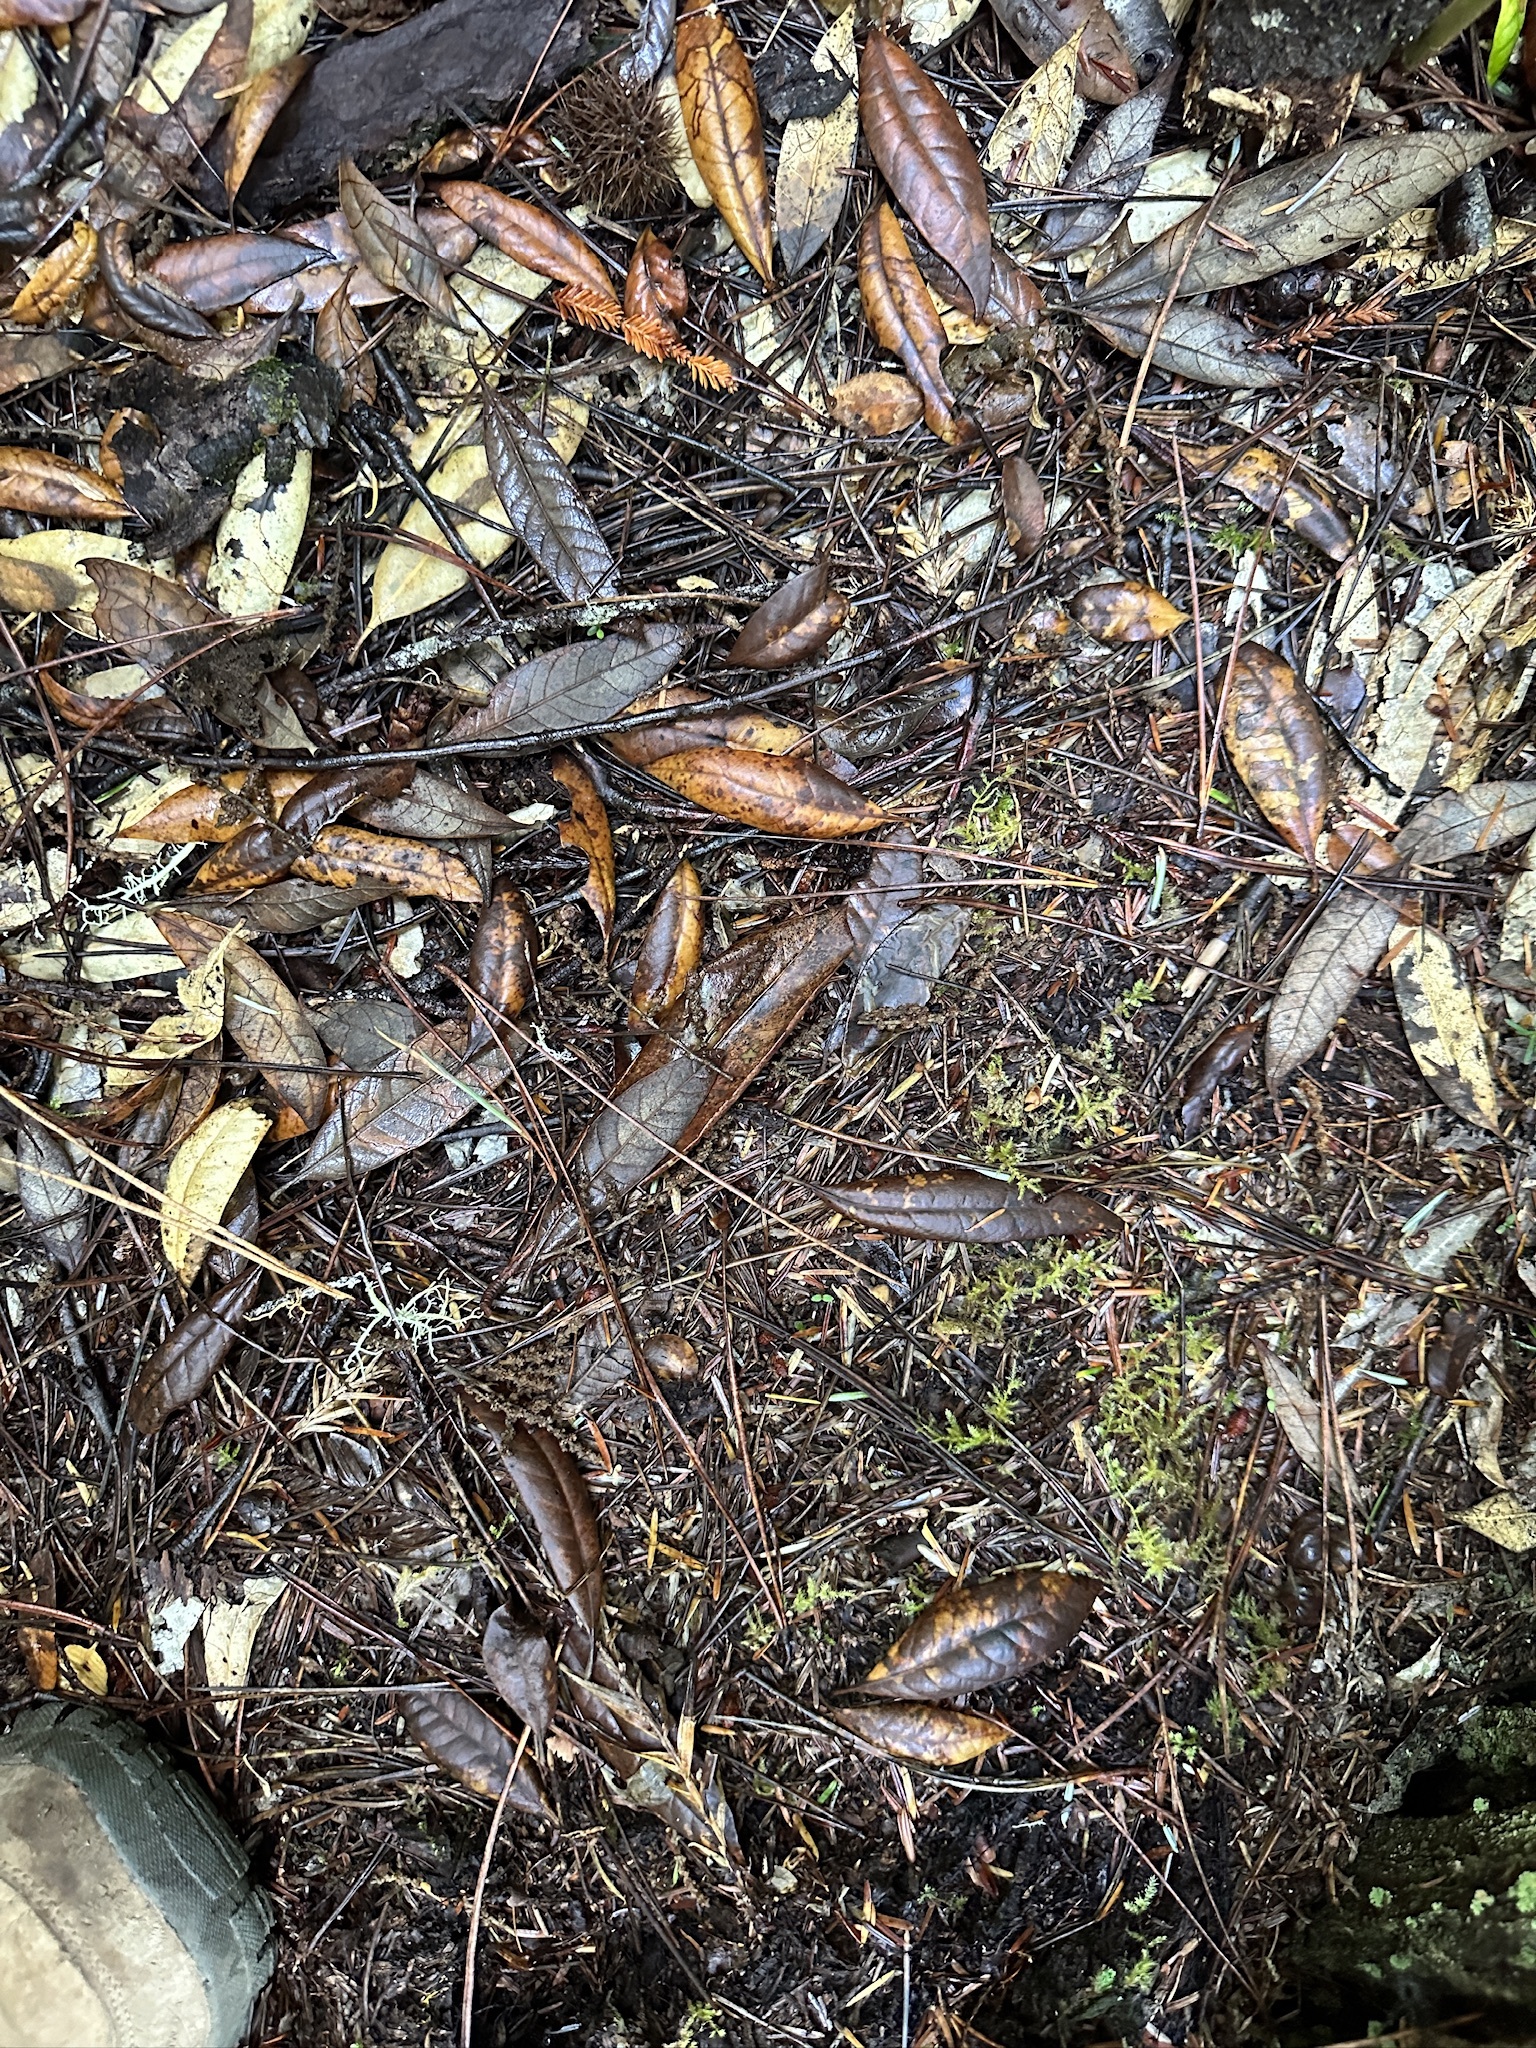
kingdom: Plantae
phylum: Tracheophyta
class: Magnoliopsida
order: Fagales
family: Fagaceae
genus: Chrysolepis
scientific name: Chrysolepis chrysophylla
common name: Giant chinquapin
